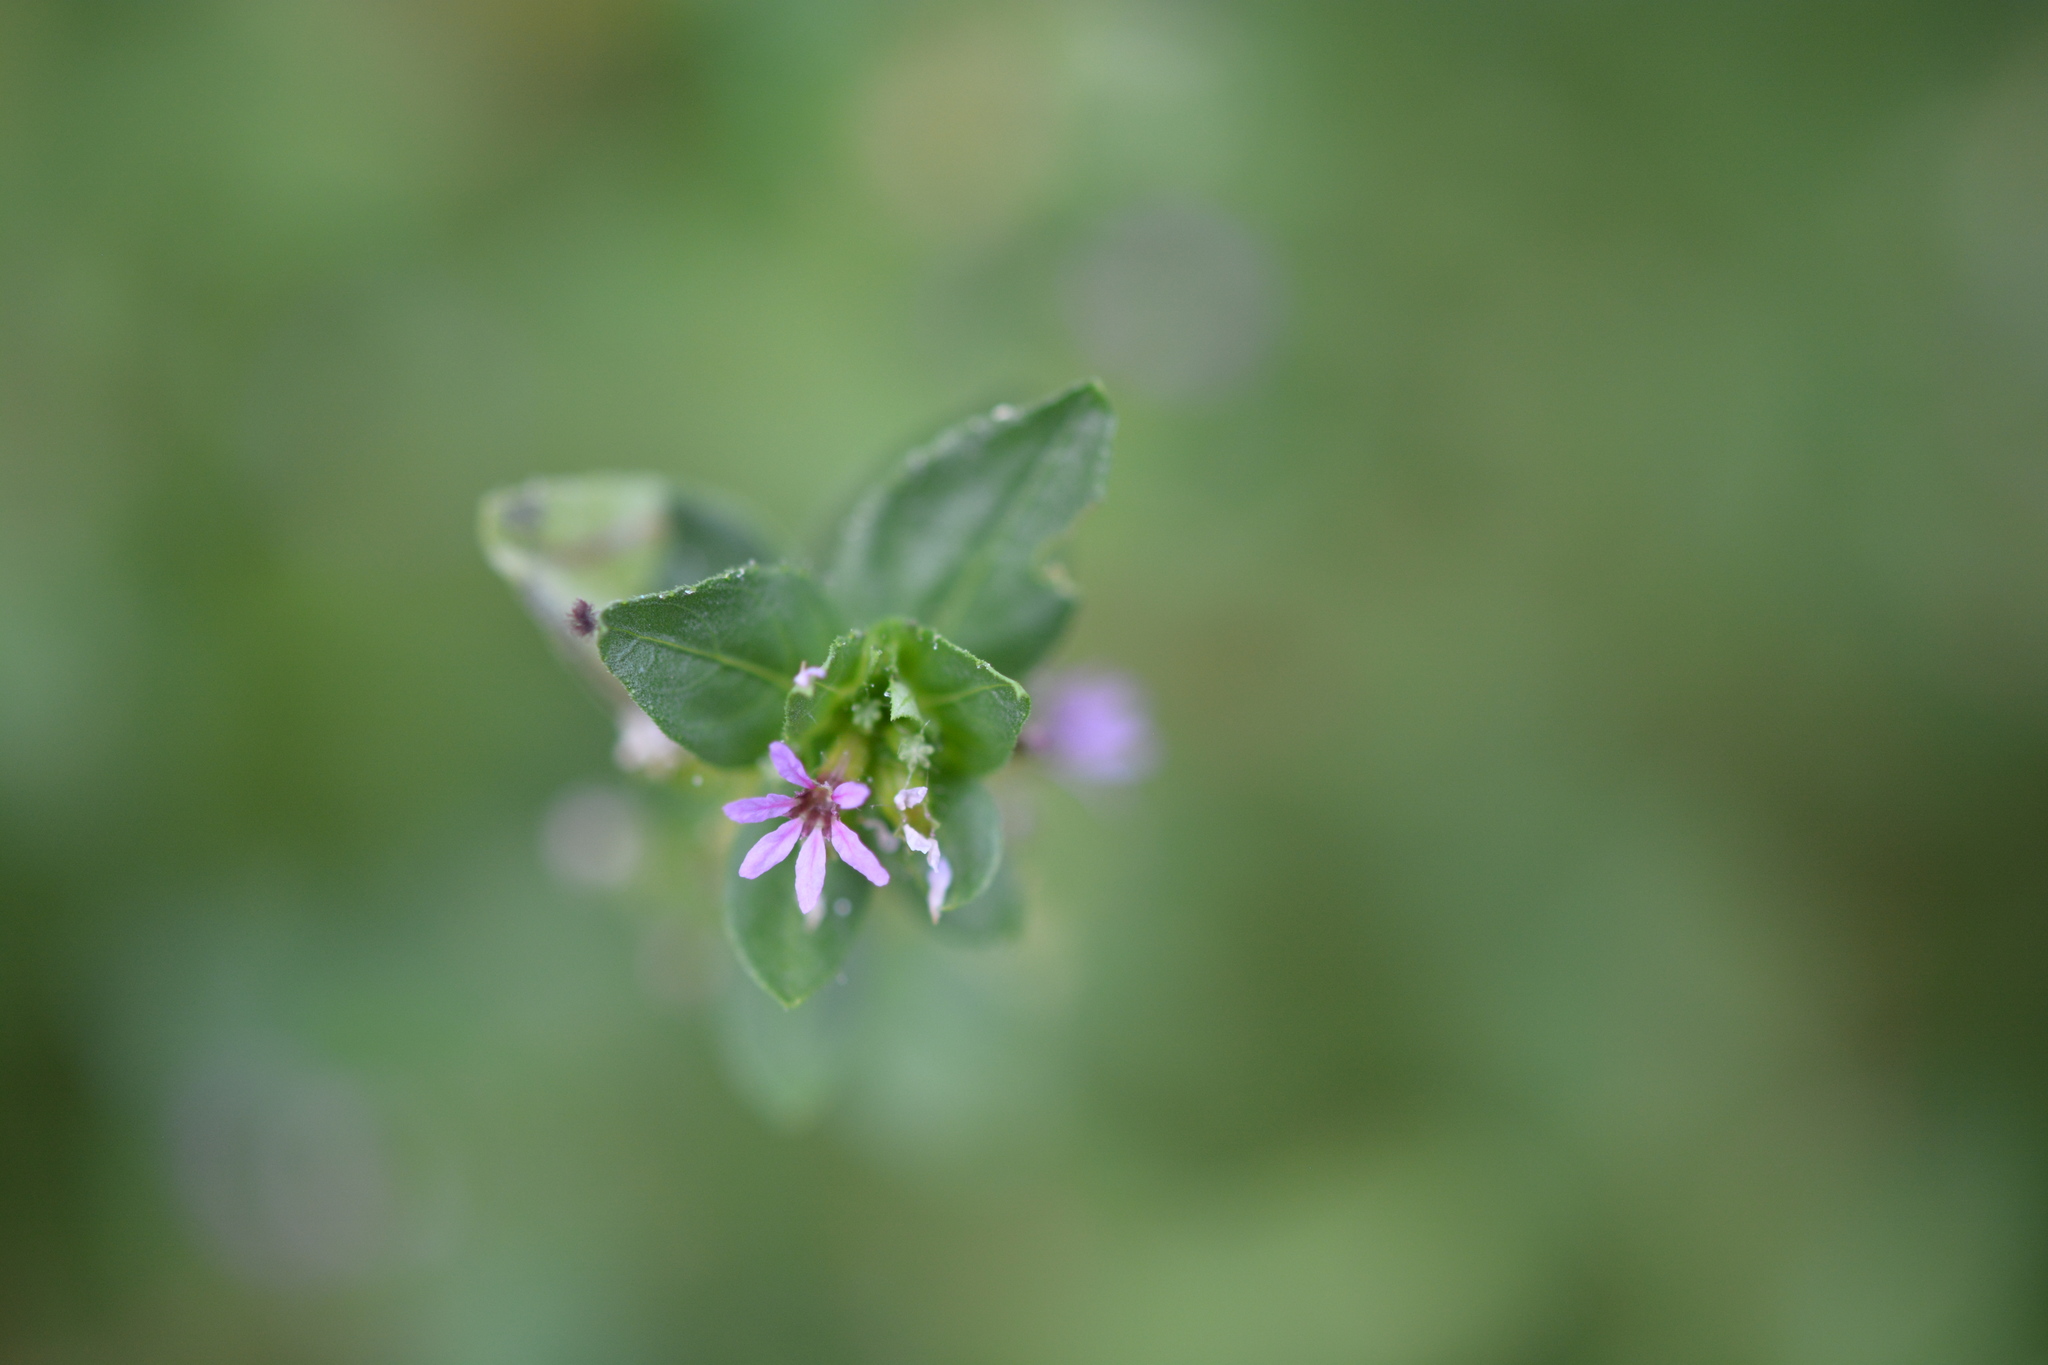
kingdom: Plantae
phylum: Tracheophyta
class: Magnoliopsida
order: Myrtales
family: Lythraceae
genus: Cuphea
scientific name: Cuphea carthagenensis
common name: Colombian waxweed
